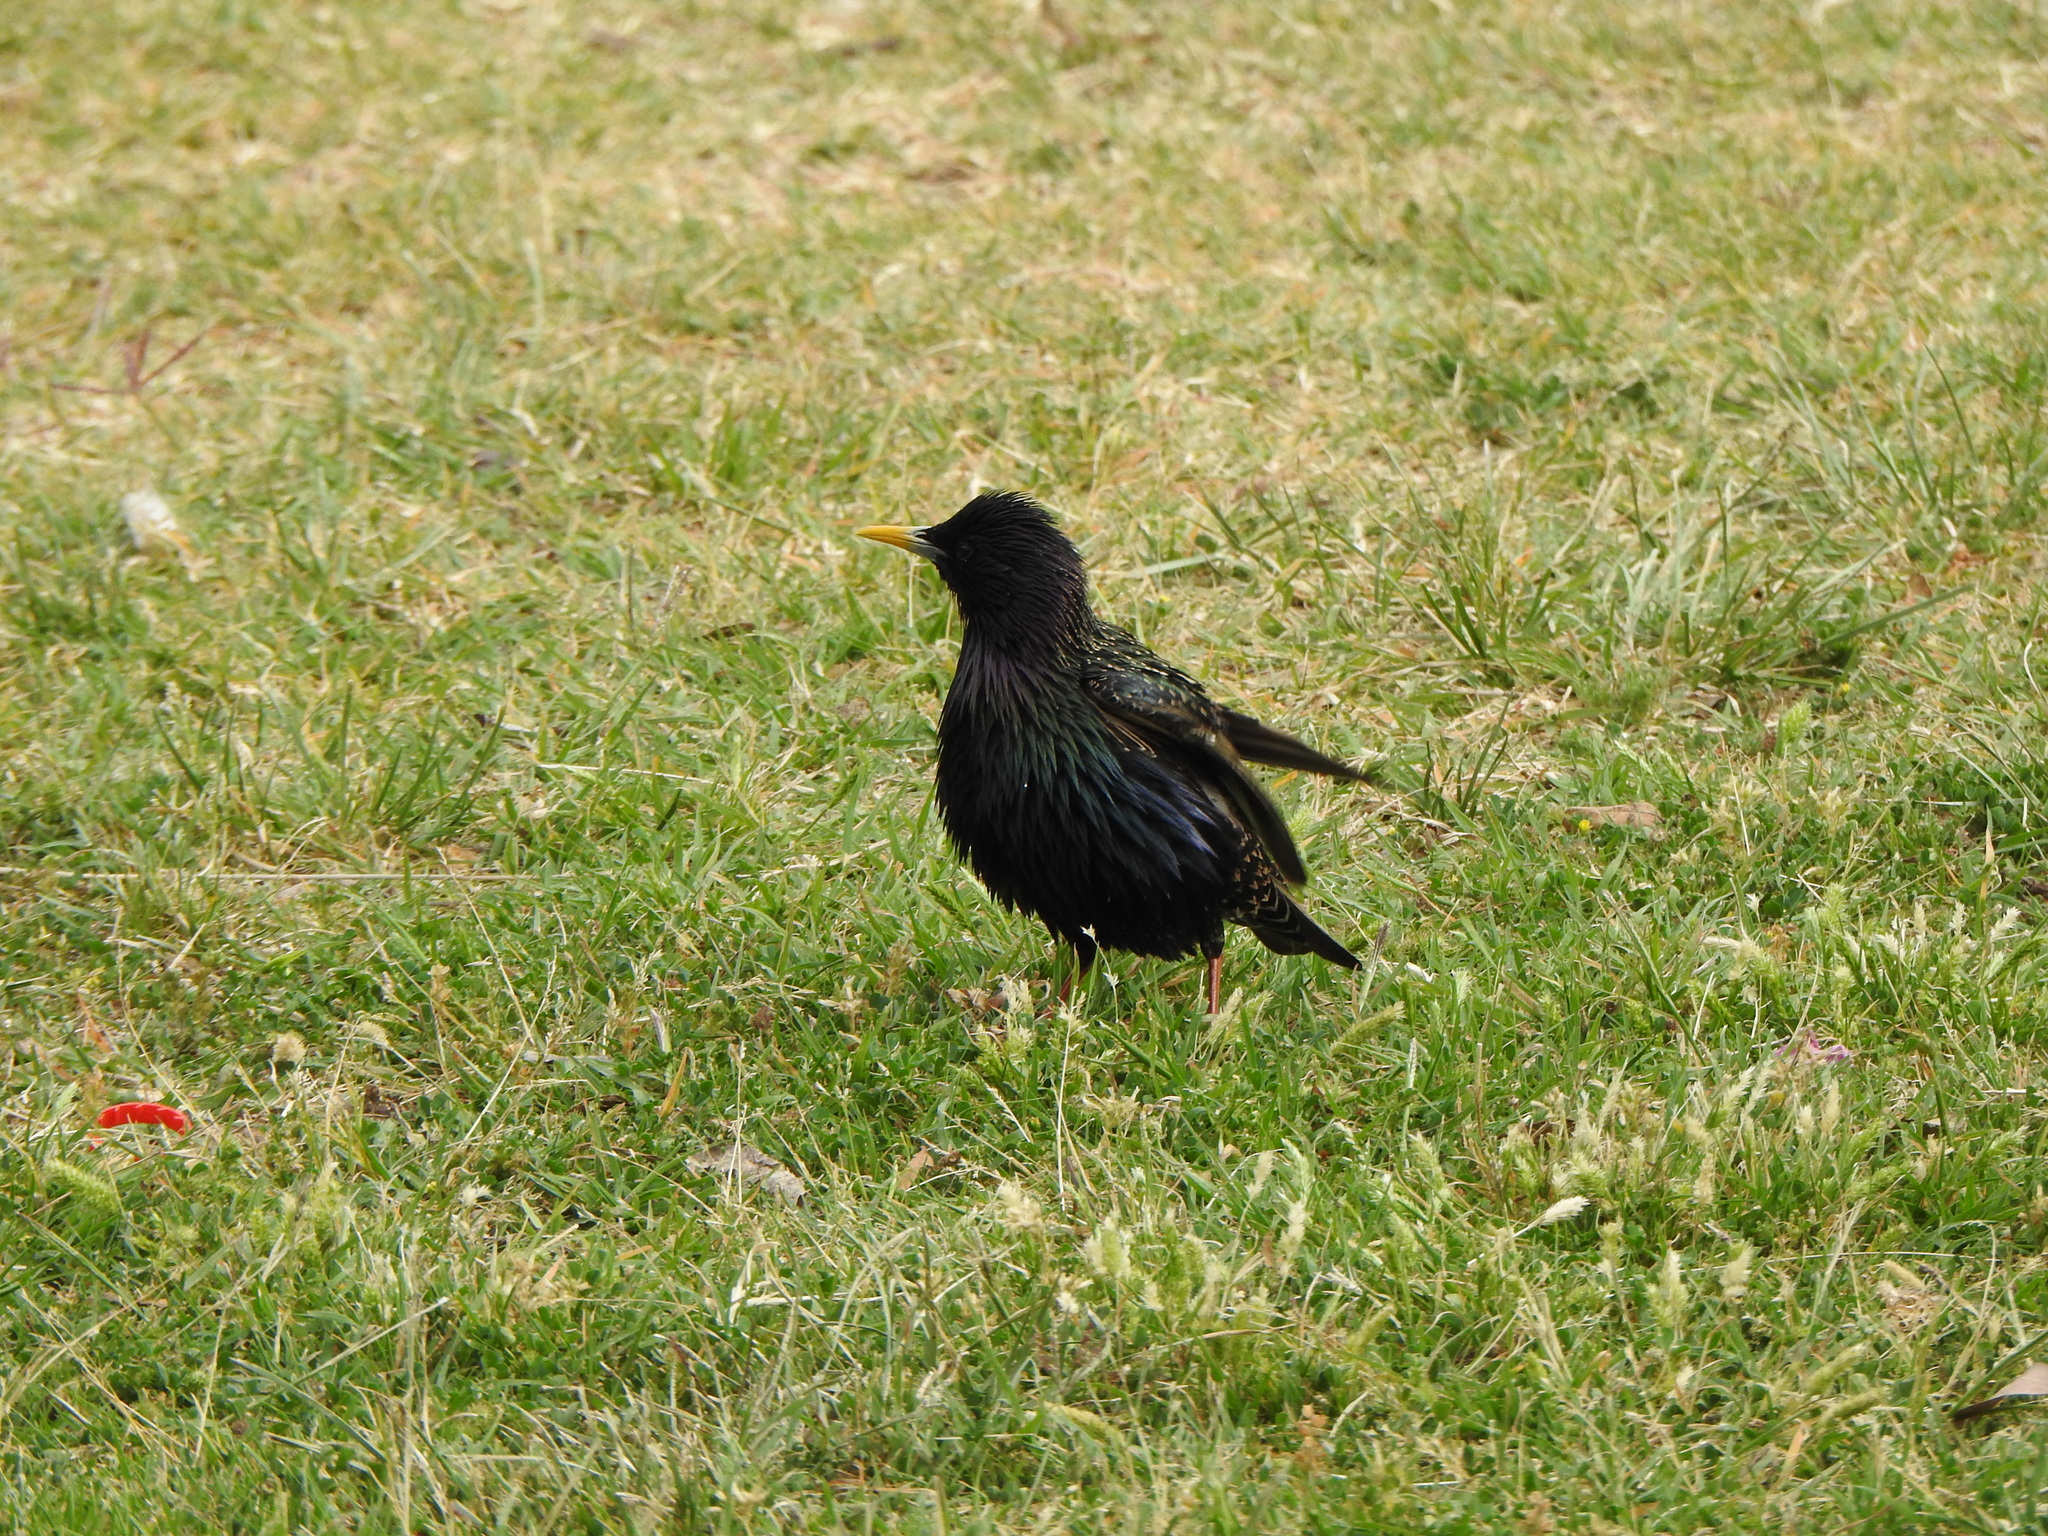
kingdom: Animalia
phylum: Chordata
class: Aves
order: Passeriformes
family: Sturnidae
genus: Sturnus
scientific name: Sturnus vulgaris
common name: Common starling
